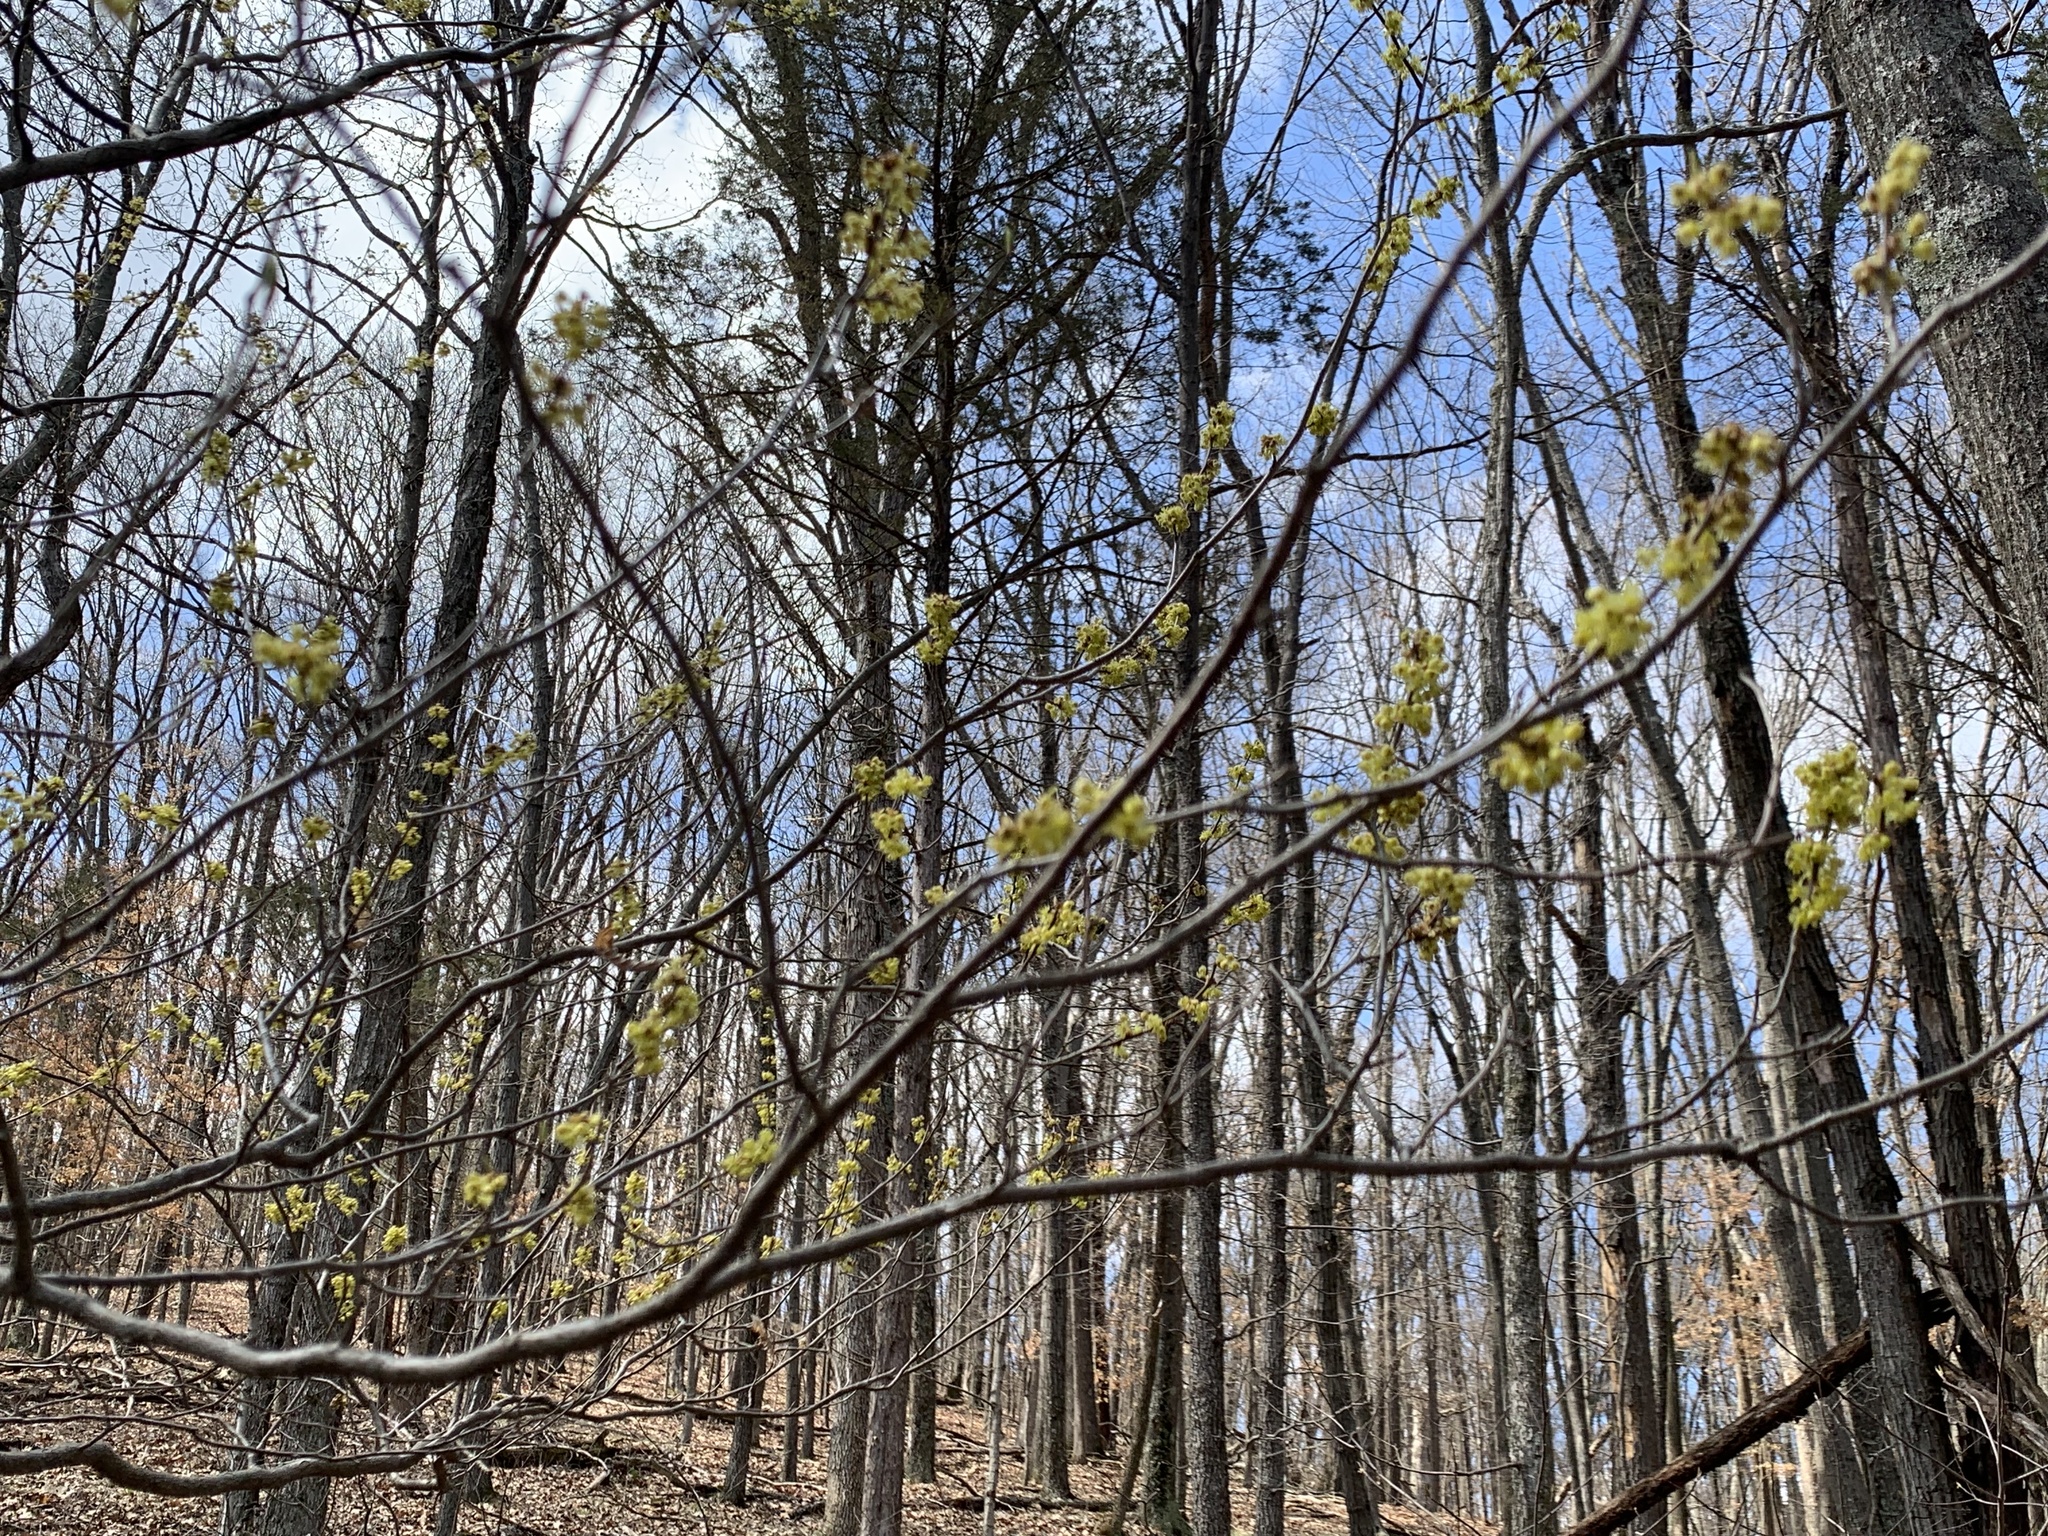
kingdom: Plantae
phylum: Tracheophyta
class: Magnoliopsida
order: Laurales
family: Lauraceae
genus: Lindera
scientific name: Lindera benzoin
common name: Spicebush
